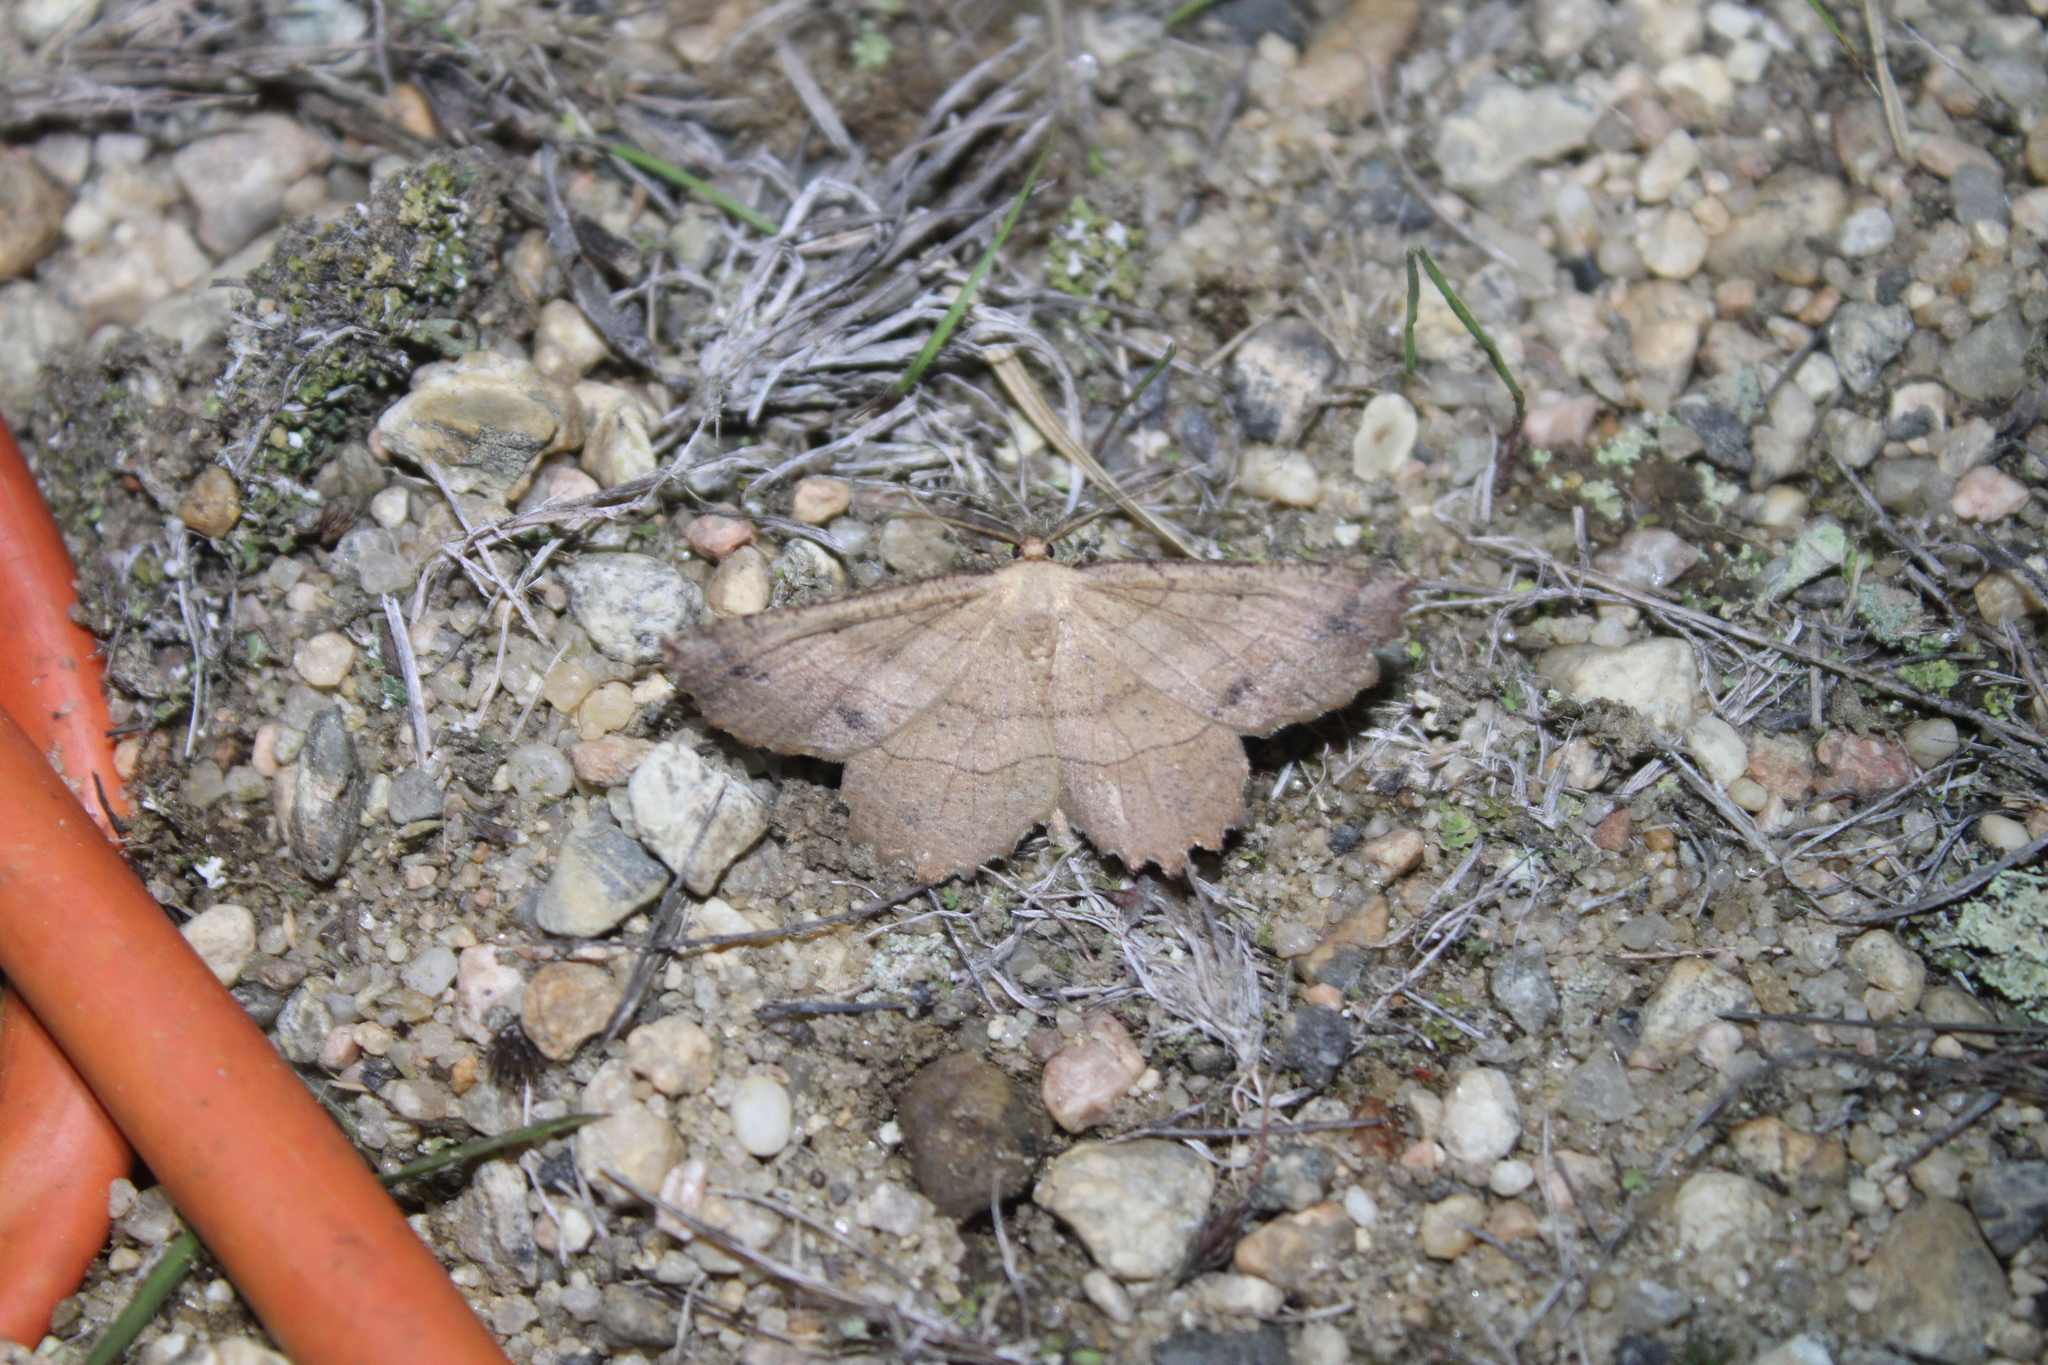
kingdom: Animalia
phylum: Arthropoda
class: Insecta
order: Lepidoptera
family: Geometridae
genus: Euchlaena
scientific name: Euchlaena johnsonaria
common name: Johnson's euchlaena
